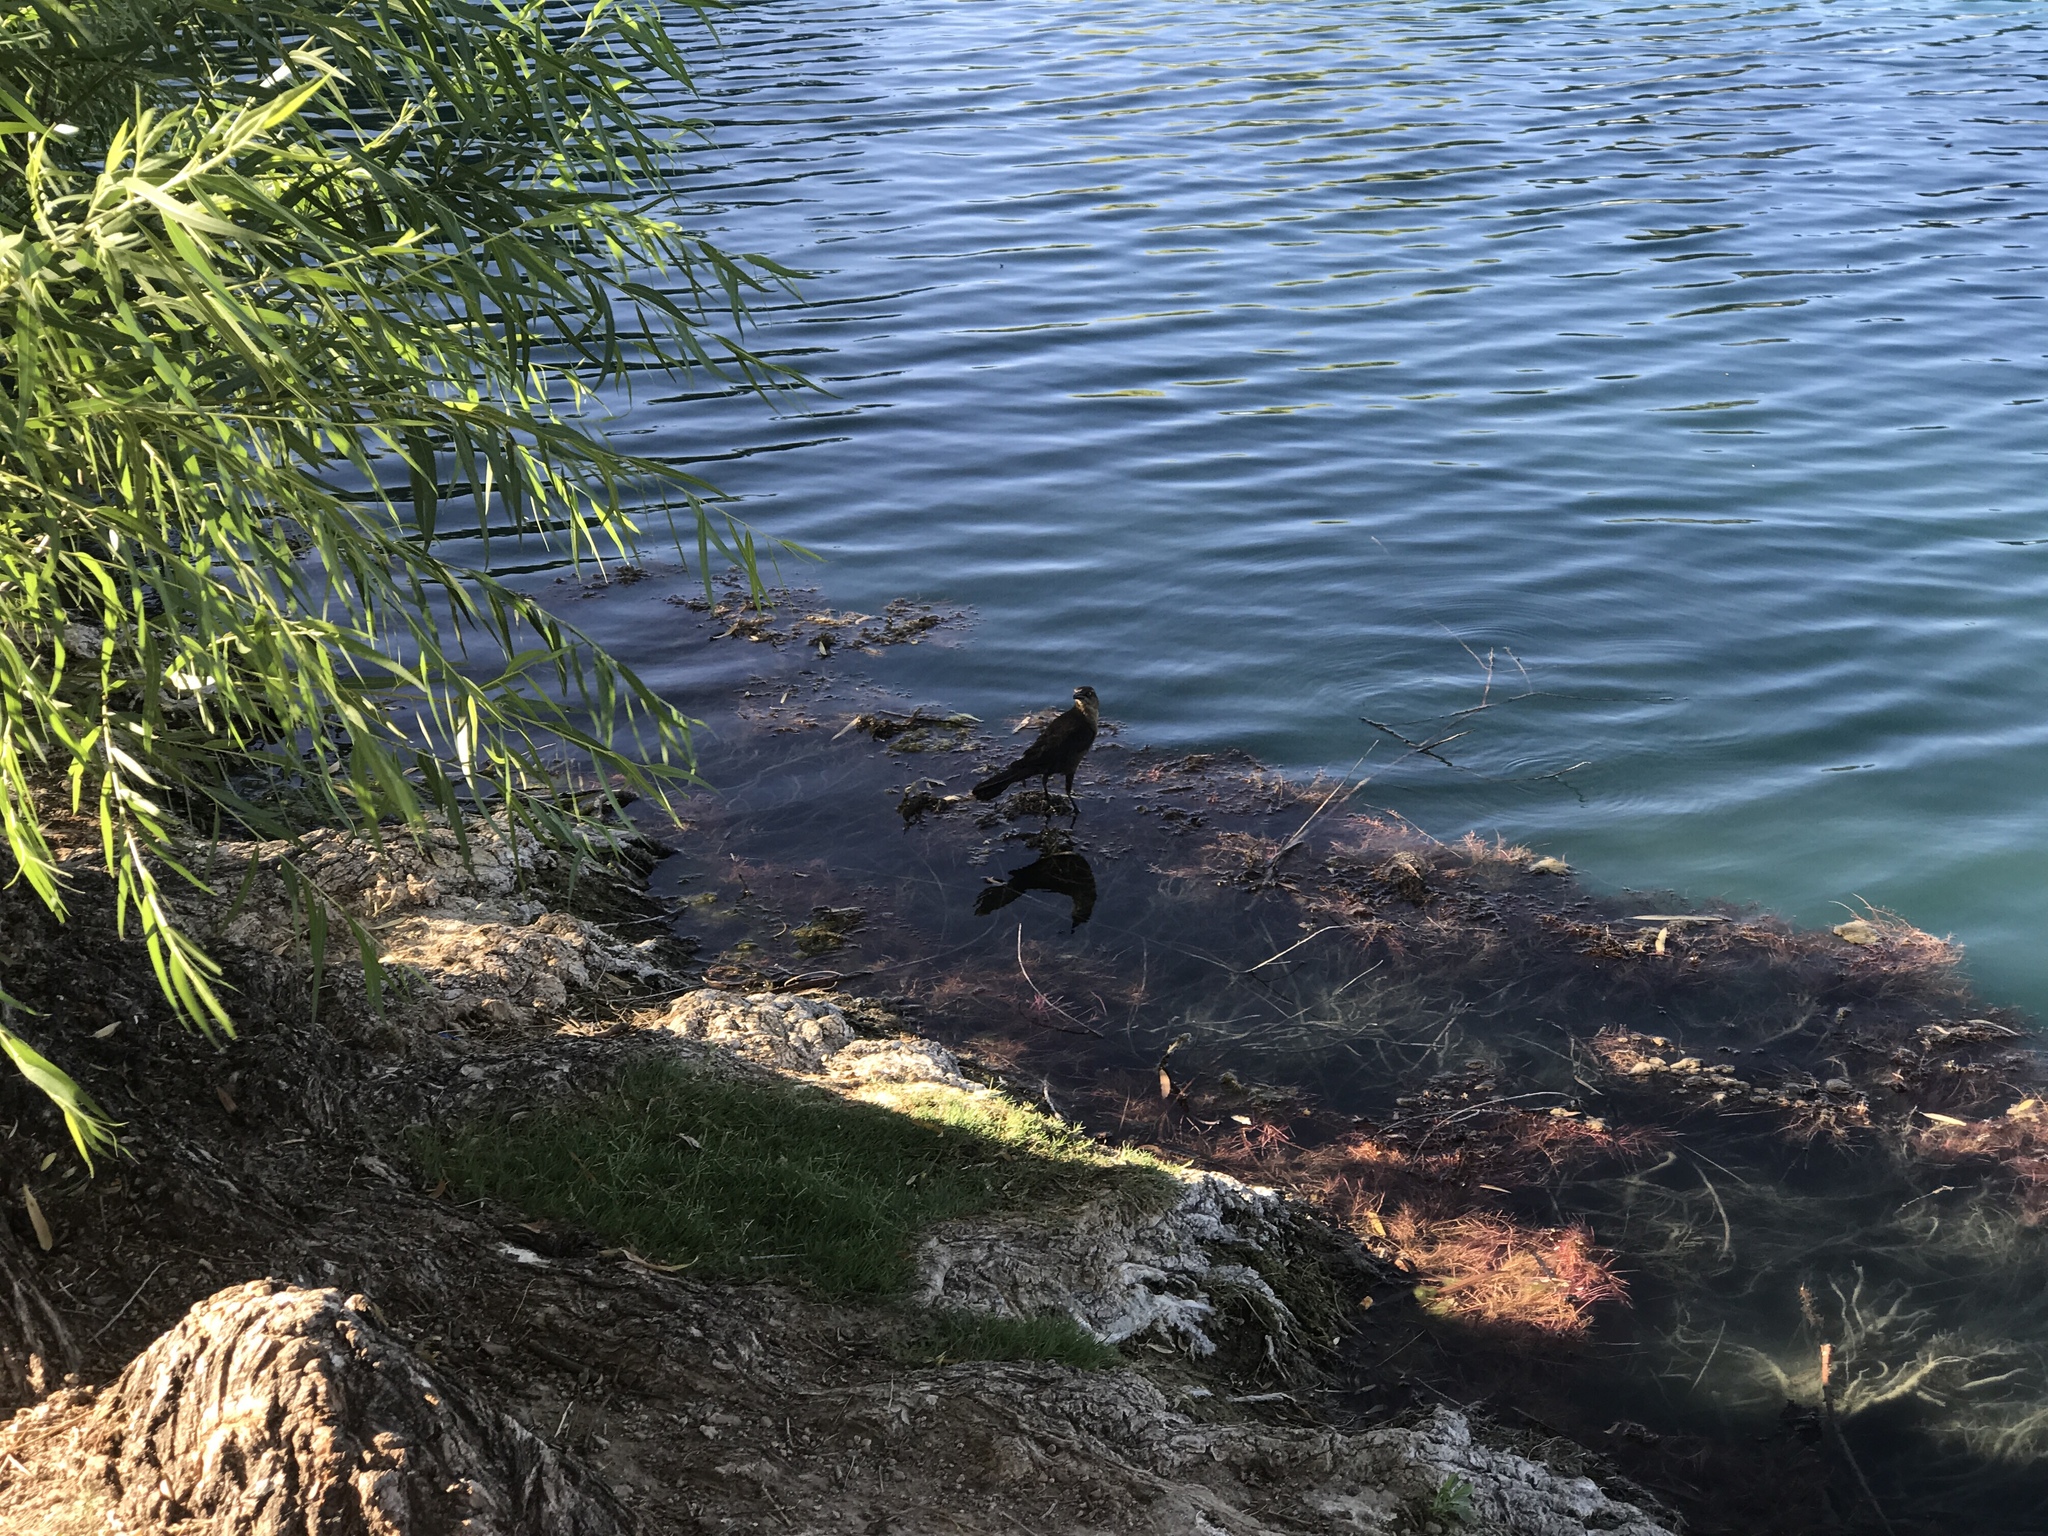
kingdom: Animalia
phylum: Chordata
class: Aves
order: Passeriformes
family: Icteridae
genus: Quiscalus
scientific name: Quiscalus mexicanus
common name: Great-tailed grackle
